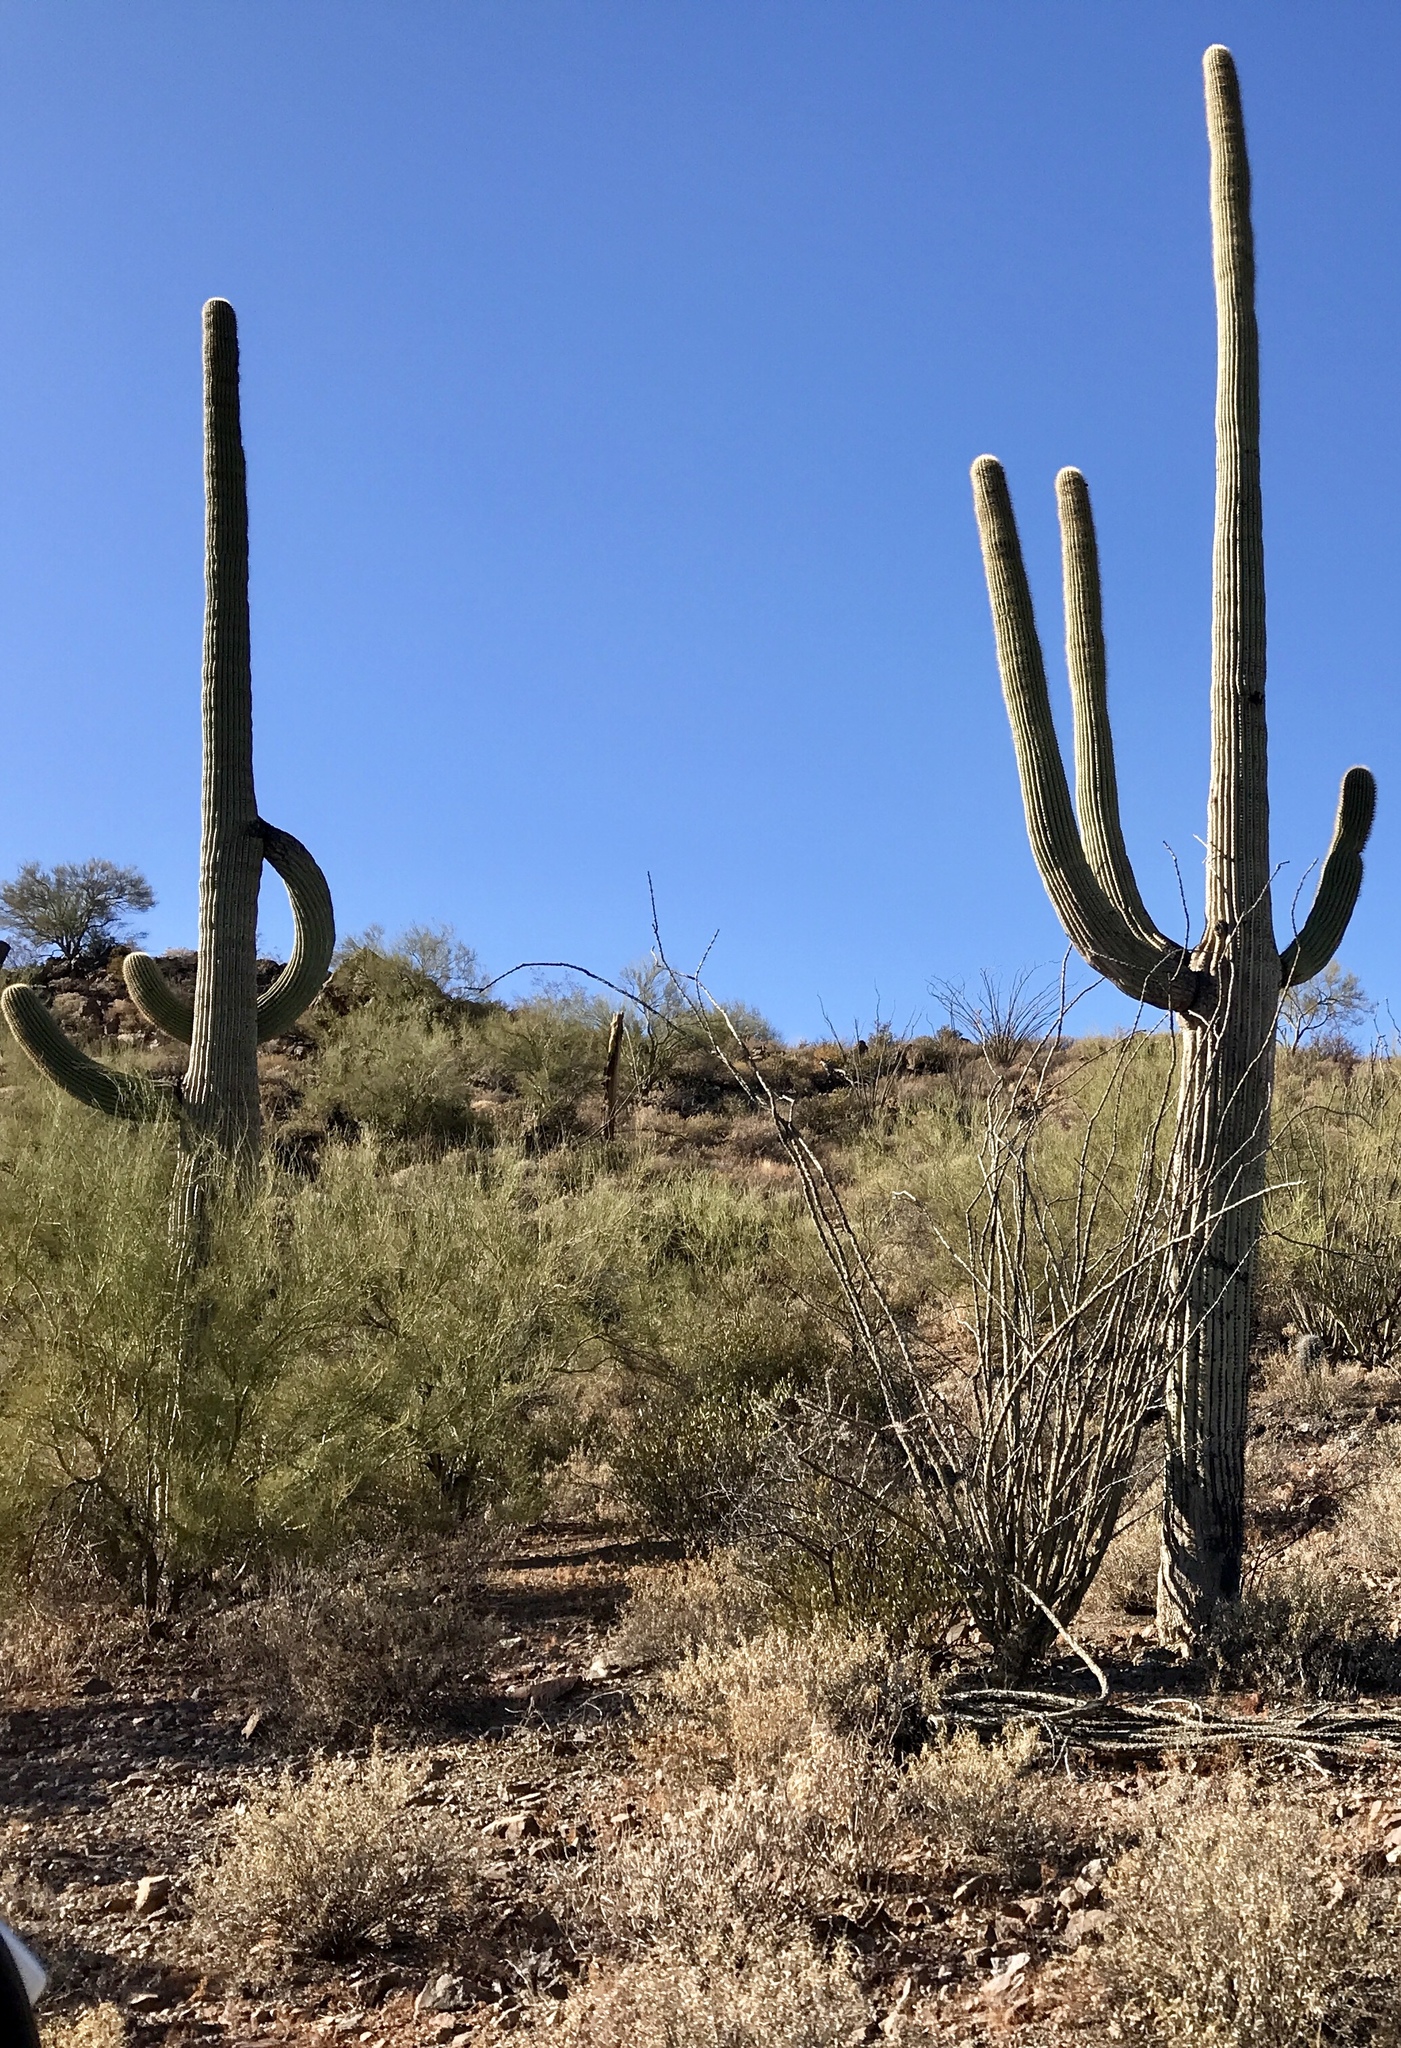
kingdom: Plantae
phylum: Tracheophyta
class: Magnoliopsida
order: Caryophyllales
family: Cactaceae
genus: Carnegiea
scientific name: Carnegiea gigantea
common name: Saguaro
